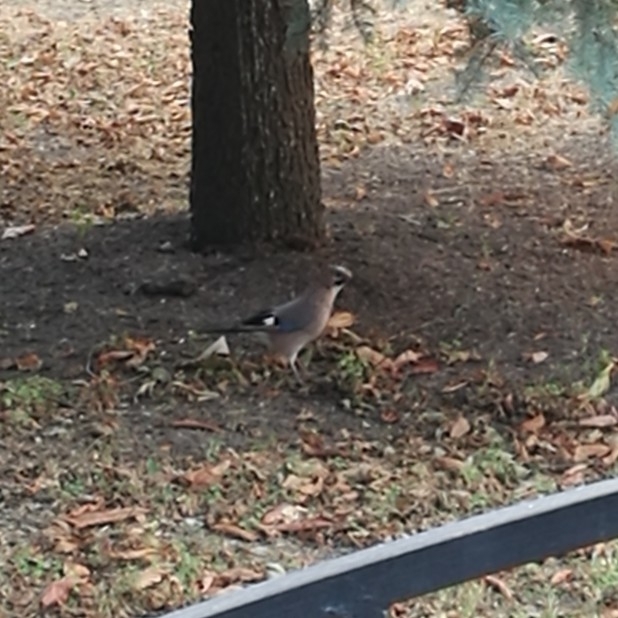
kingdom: Animalia
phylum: Chordata
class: Aves
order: Passeriformes
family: Corvidae
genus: Garrulus
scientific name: Garrulus glandarius
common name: Eurasian jay
